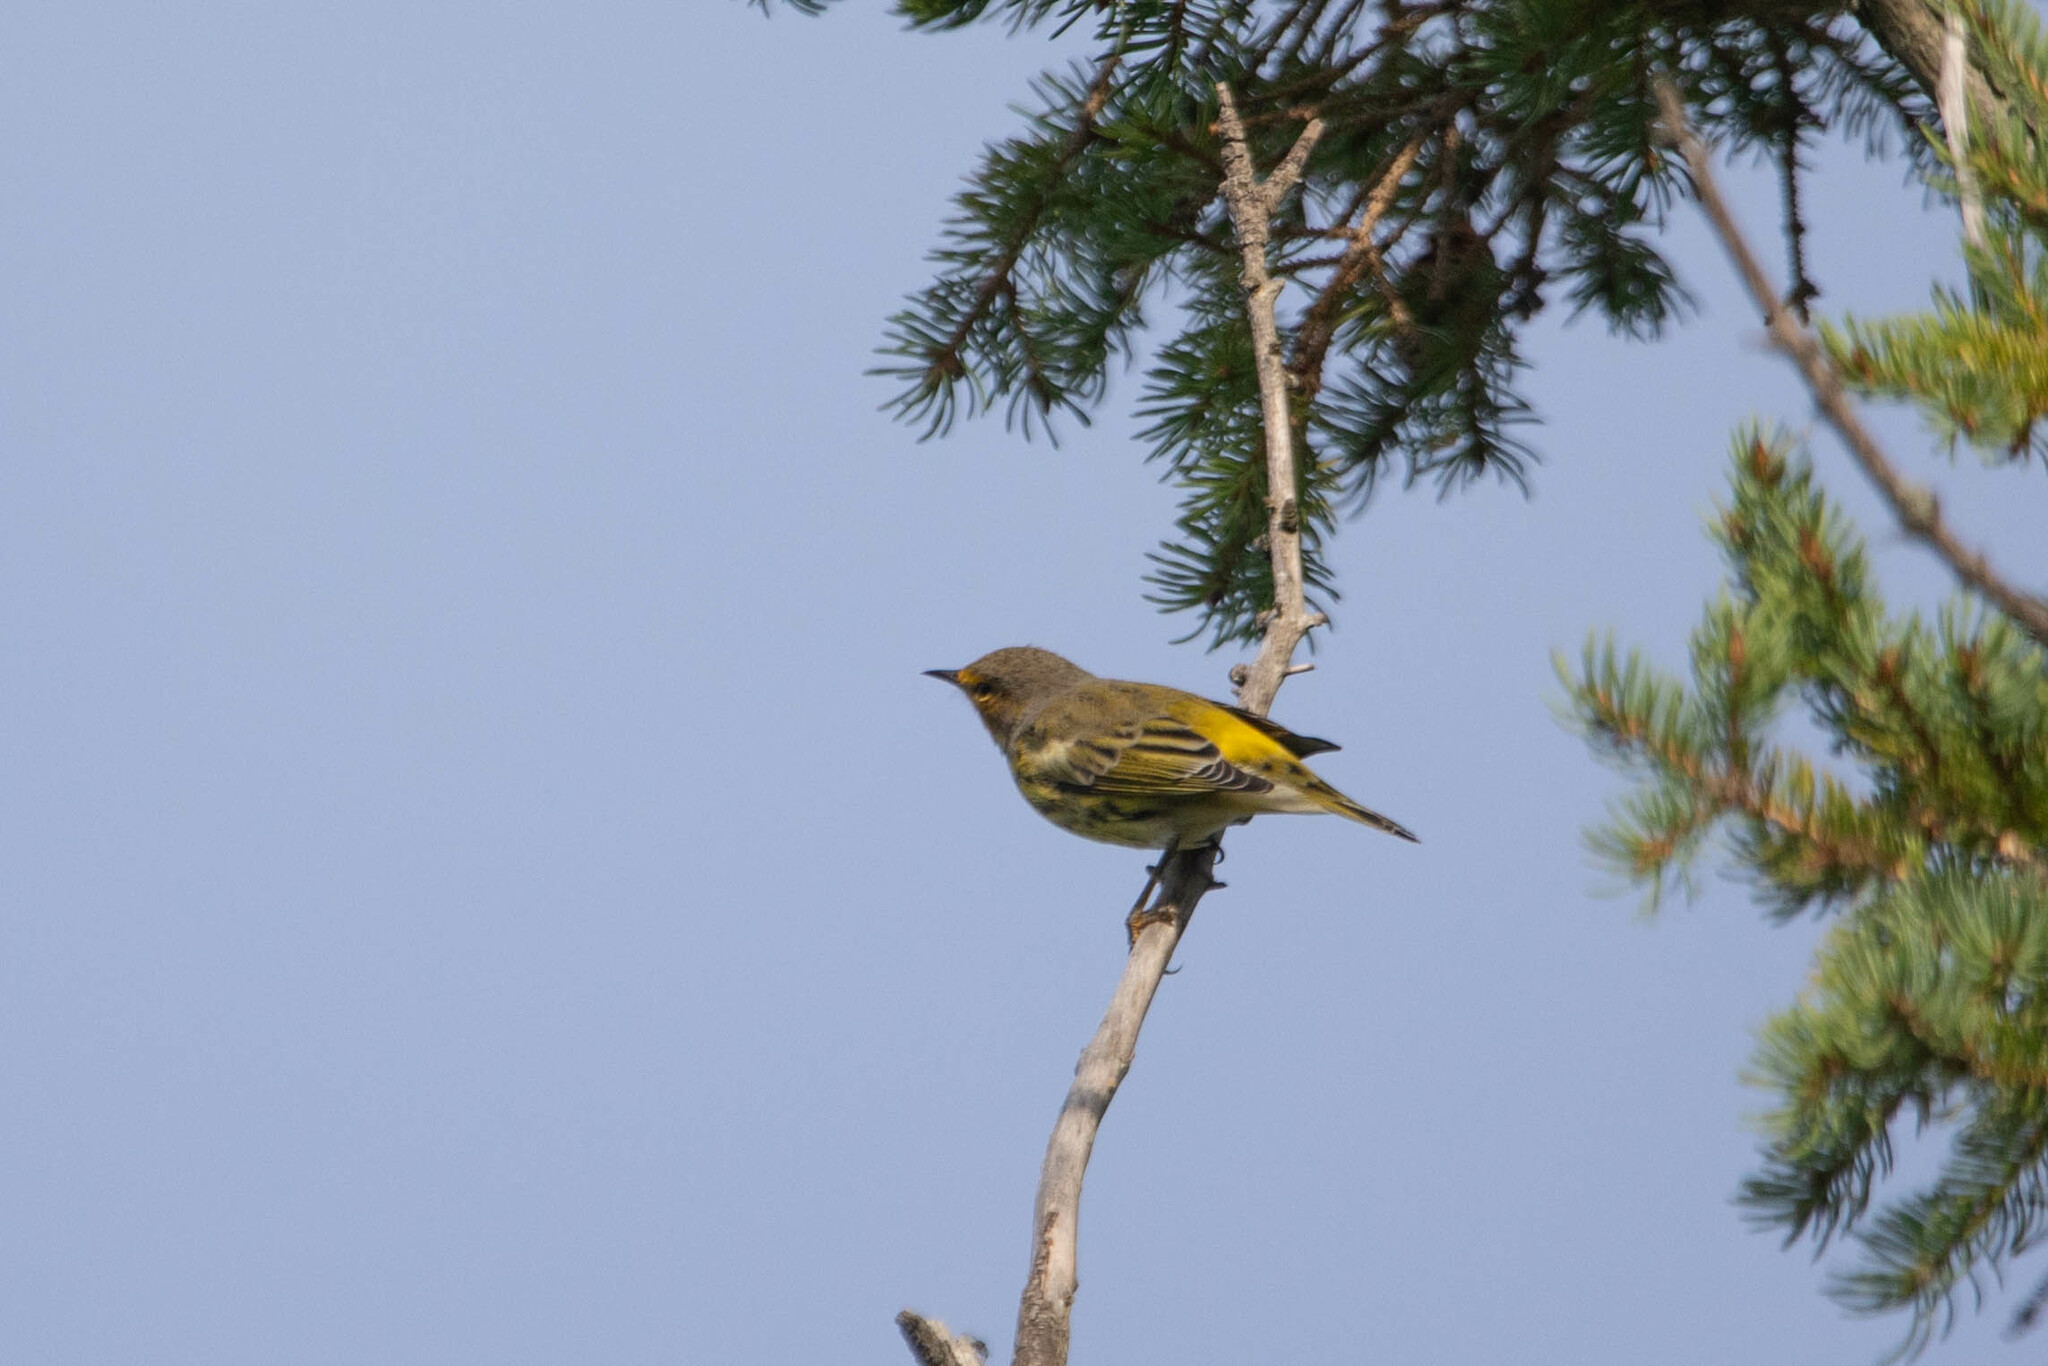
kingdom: Animalia
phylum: Chordata
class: Aves
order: Passeriformes
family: Parulidae
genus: Setophaga
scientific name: Setophaga tigrina
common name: Cape may warbler
